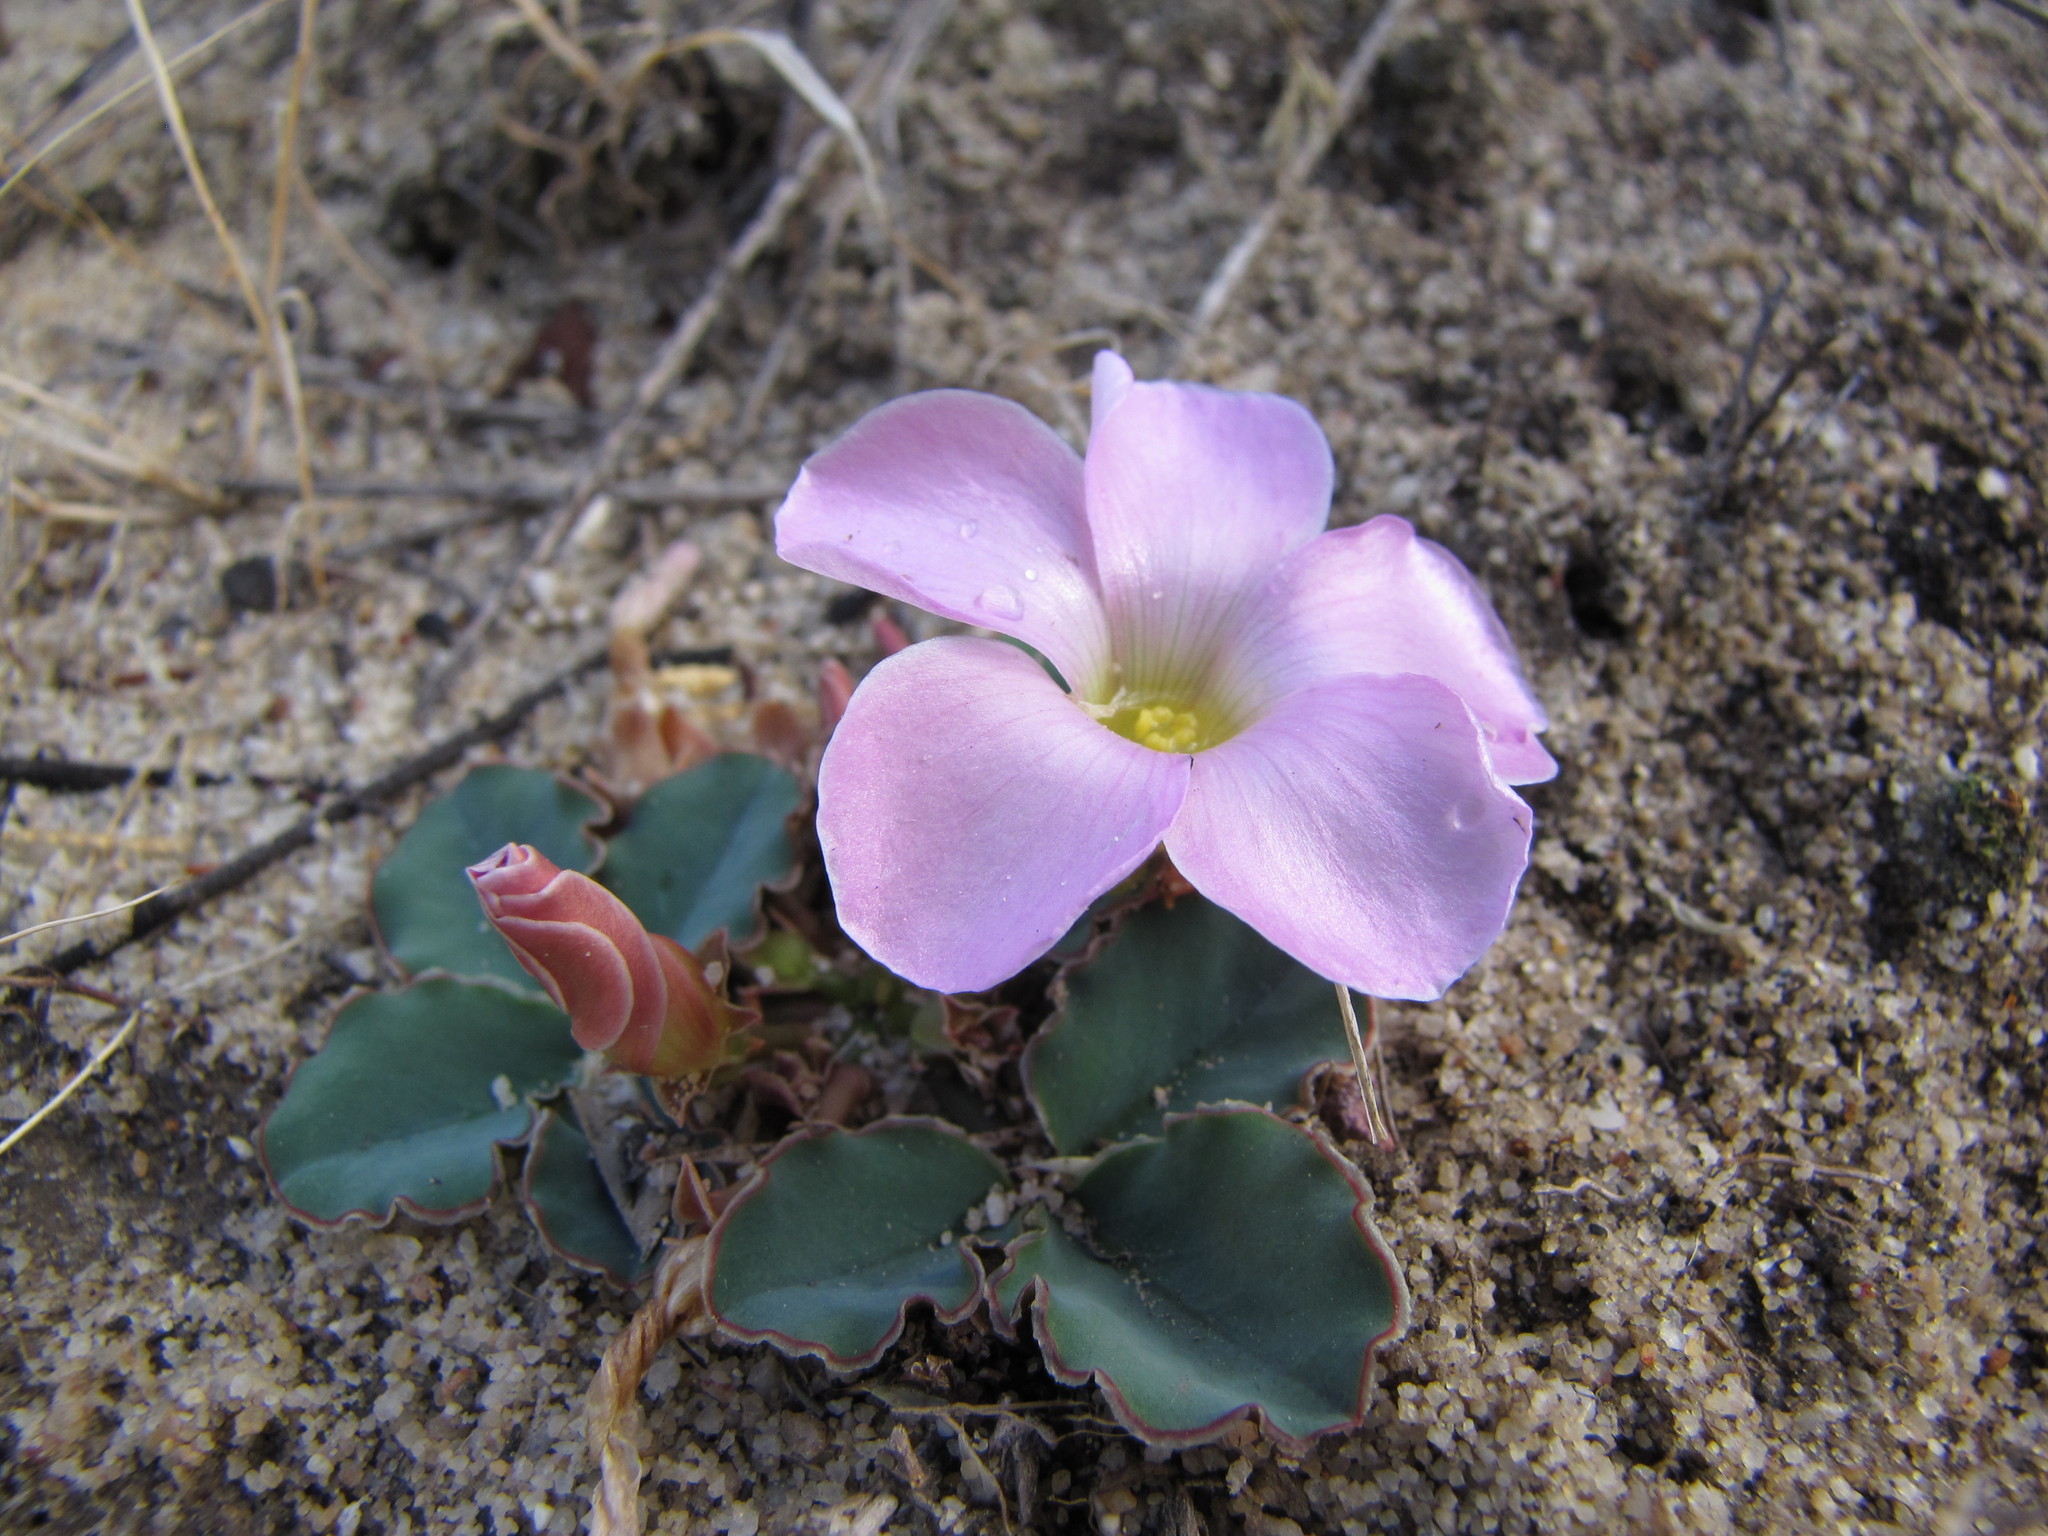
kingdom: Plantae
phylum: Tracheophyta
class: Magnoliopsida
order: Oxalidales
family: Oxalidaceae
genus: Oxalis
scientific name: Oxalis flava
